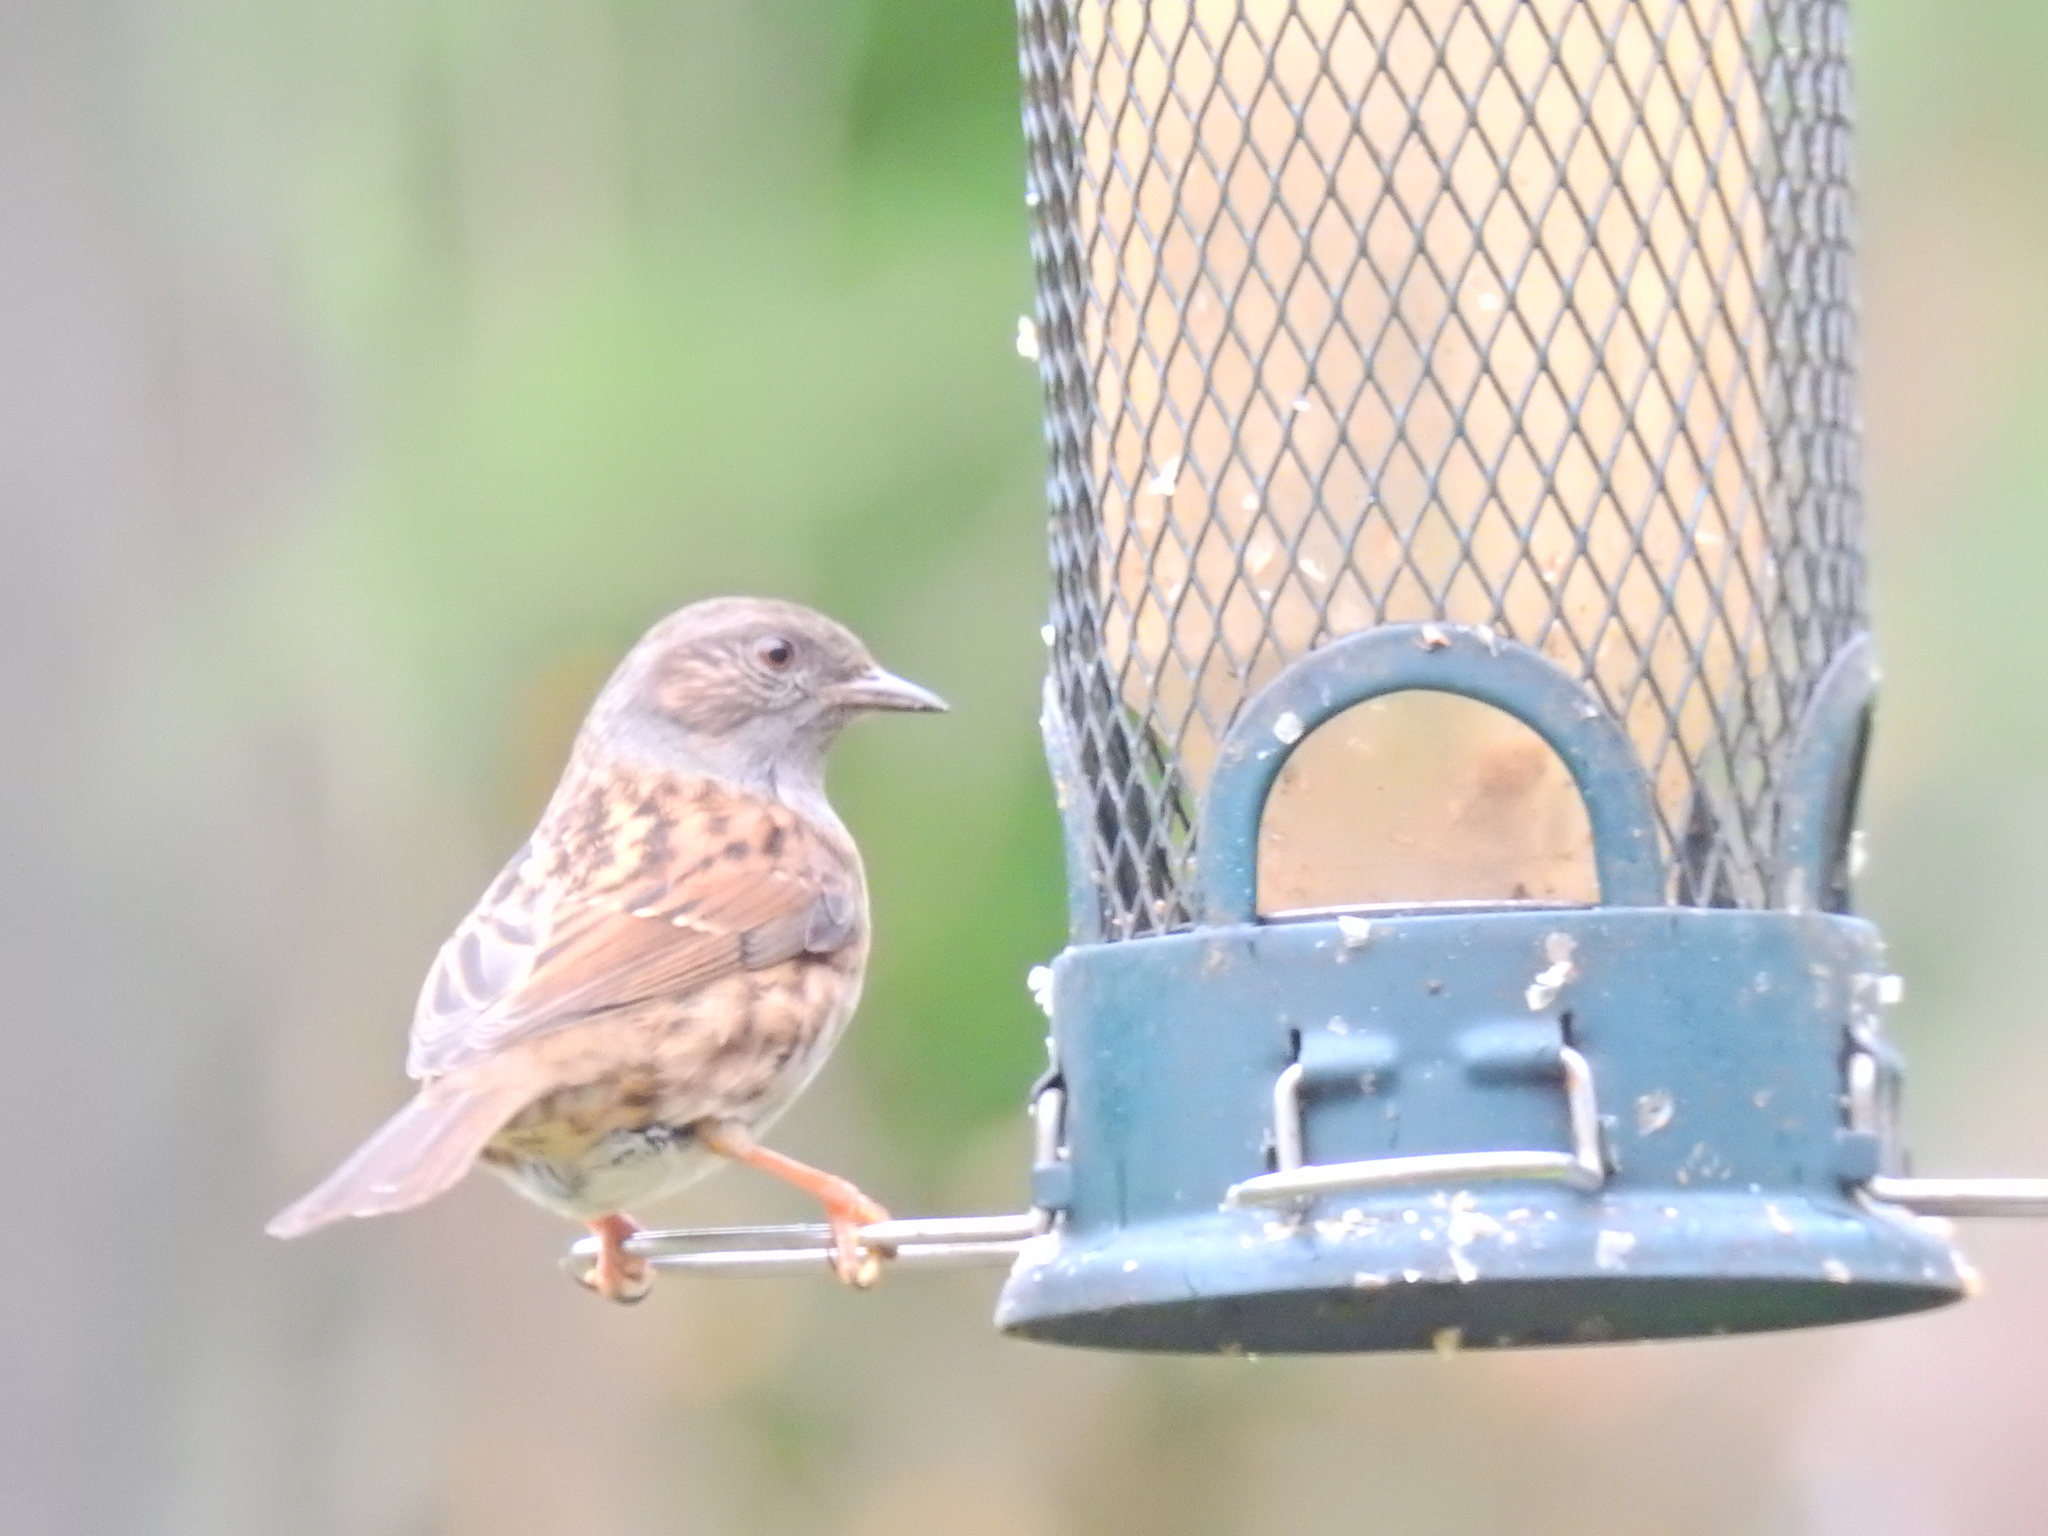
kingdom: Animalia
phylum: Chordata
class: Aves
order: Passeriformes
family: Prunellidae
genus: Prunella
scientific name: Prunella modularis
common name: Dunnock
